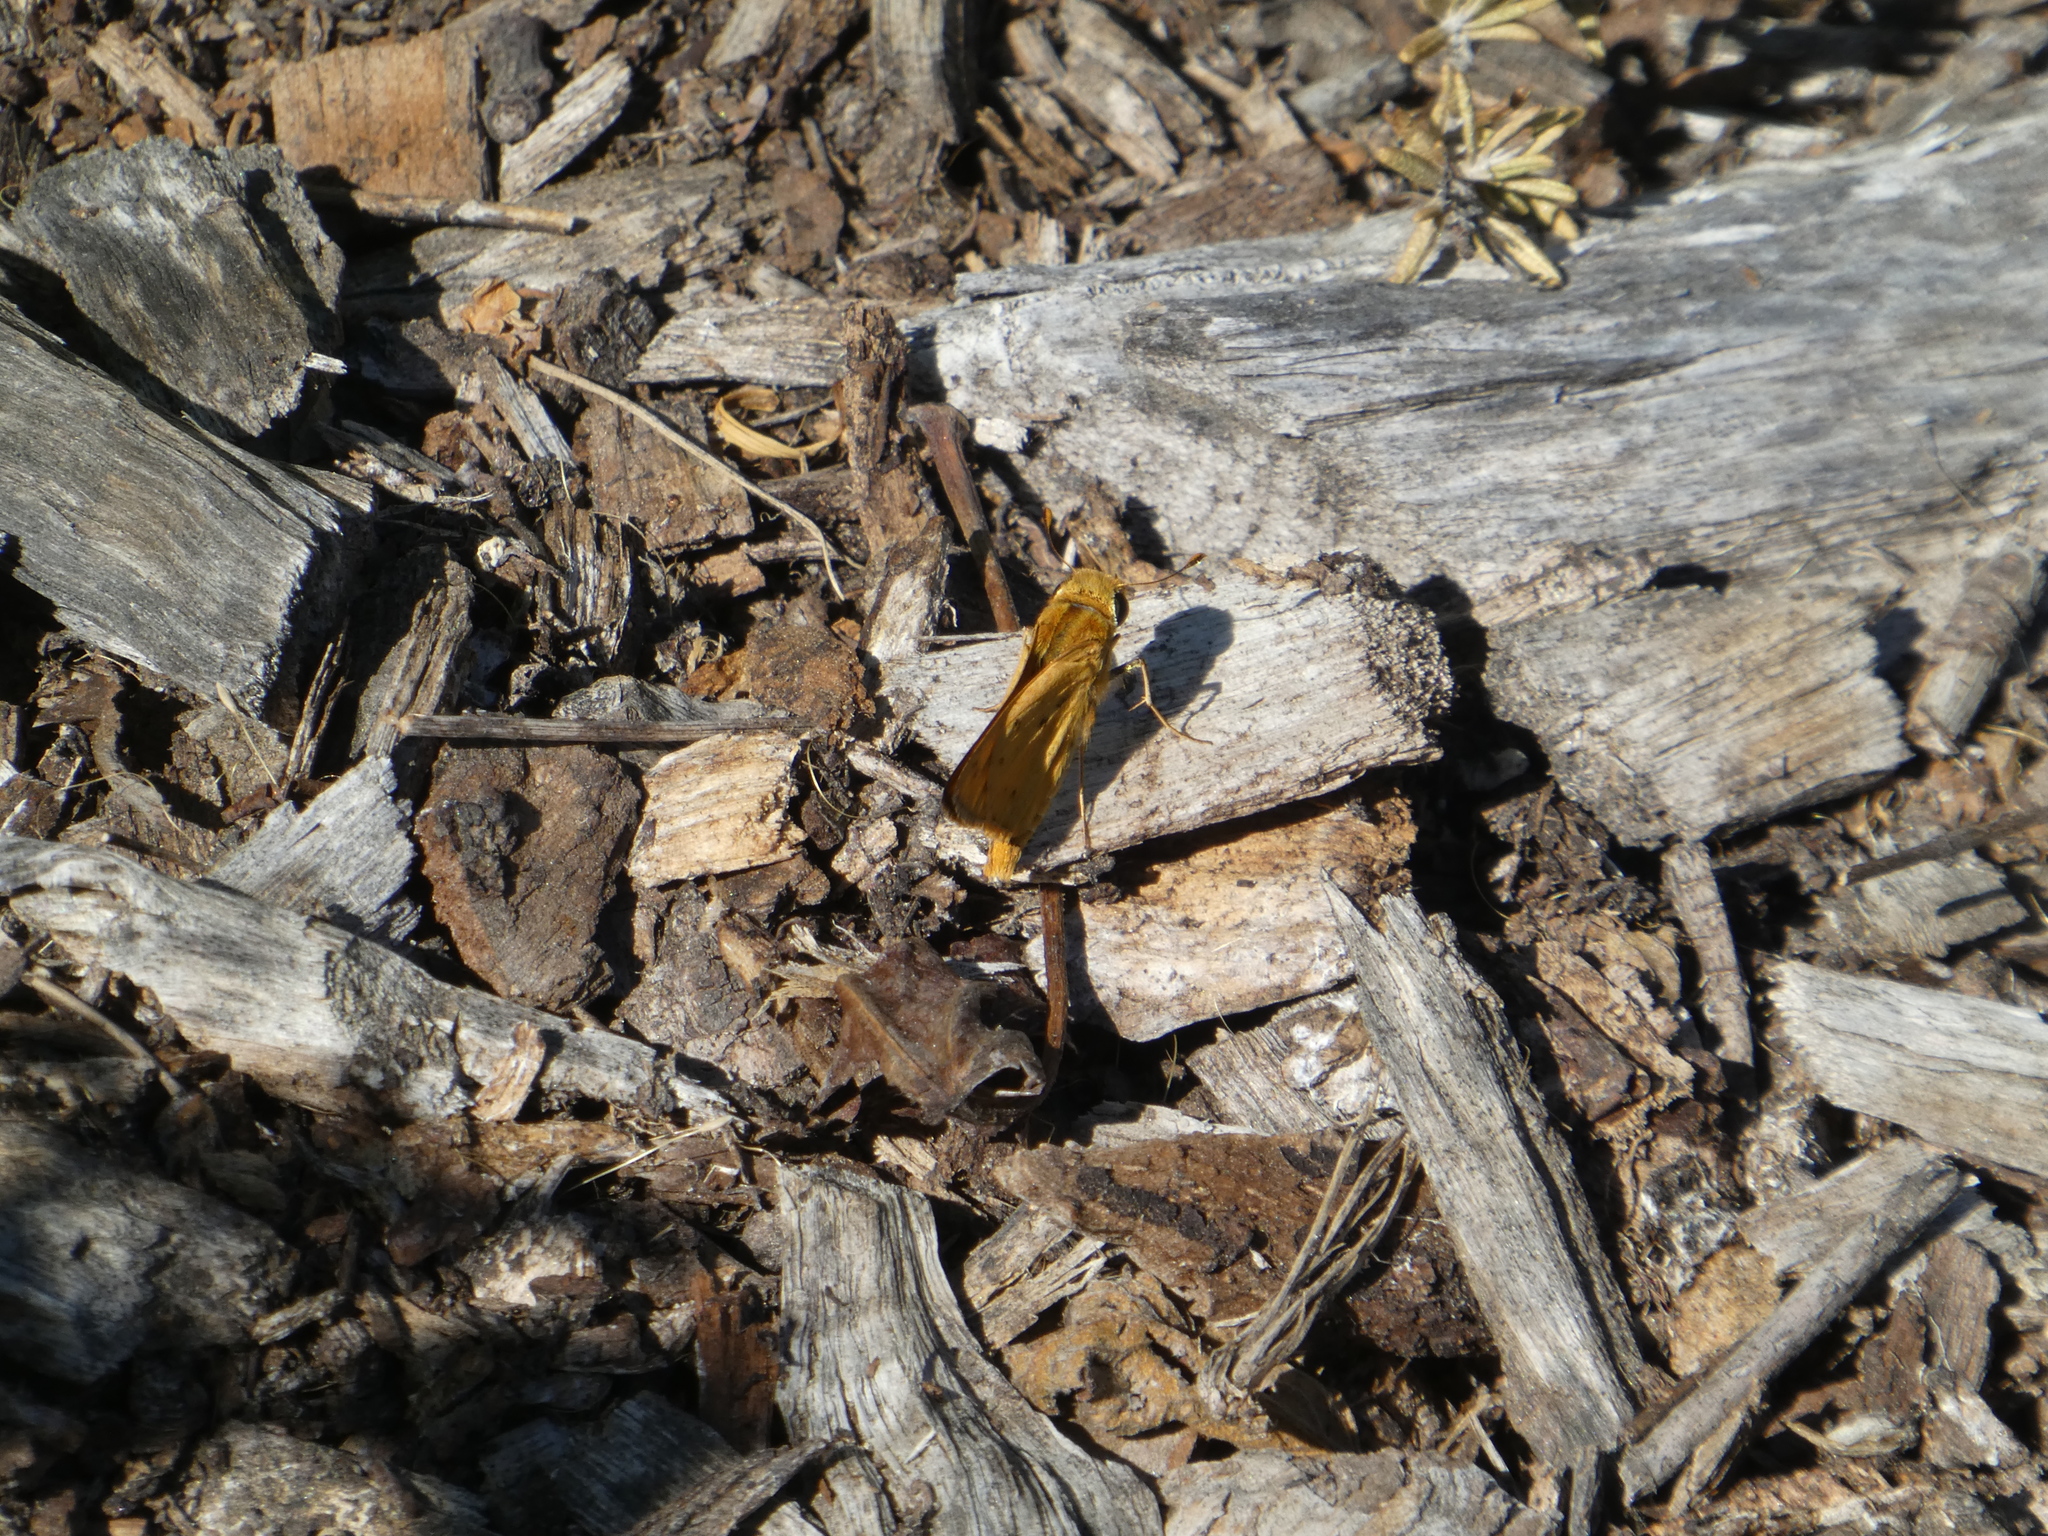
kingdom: Animalia
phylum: Arthropoda
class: Insecta
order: Lepidoptera
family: Hesperiidae
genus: Hylephila
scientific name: Hylephila phyleus
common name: Fiery skipper
